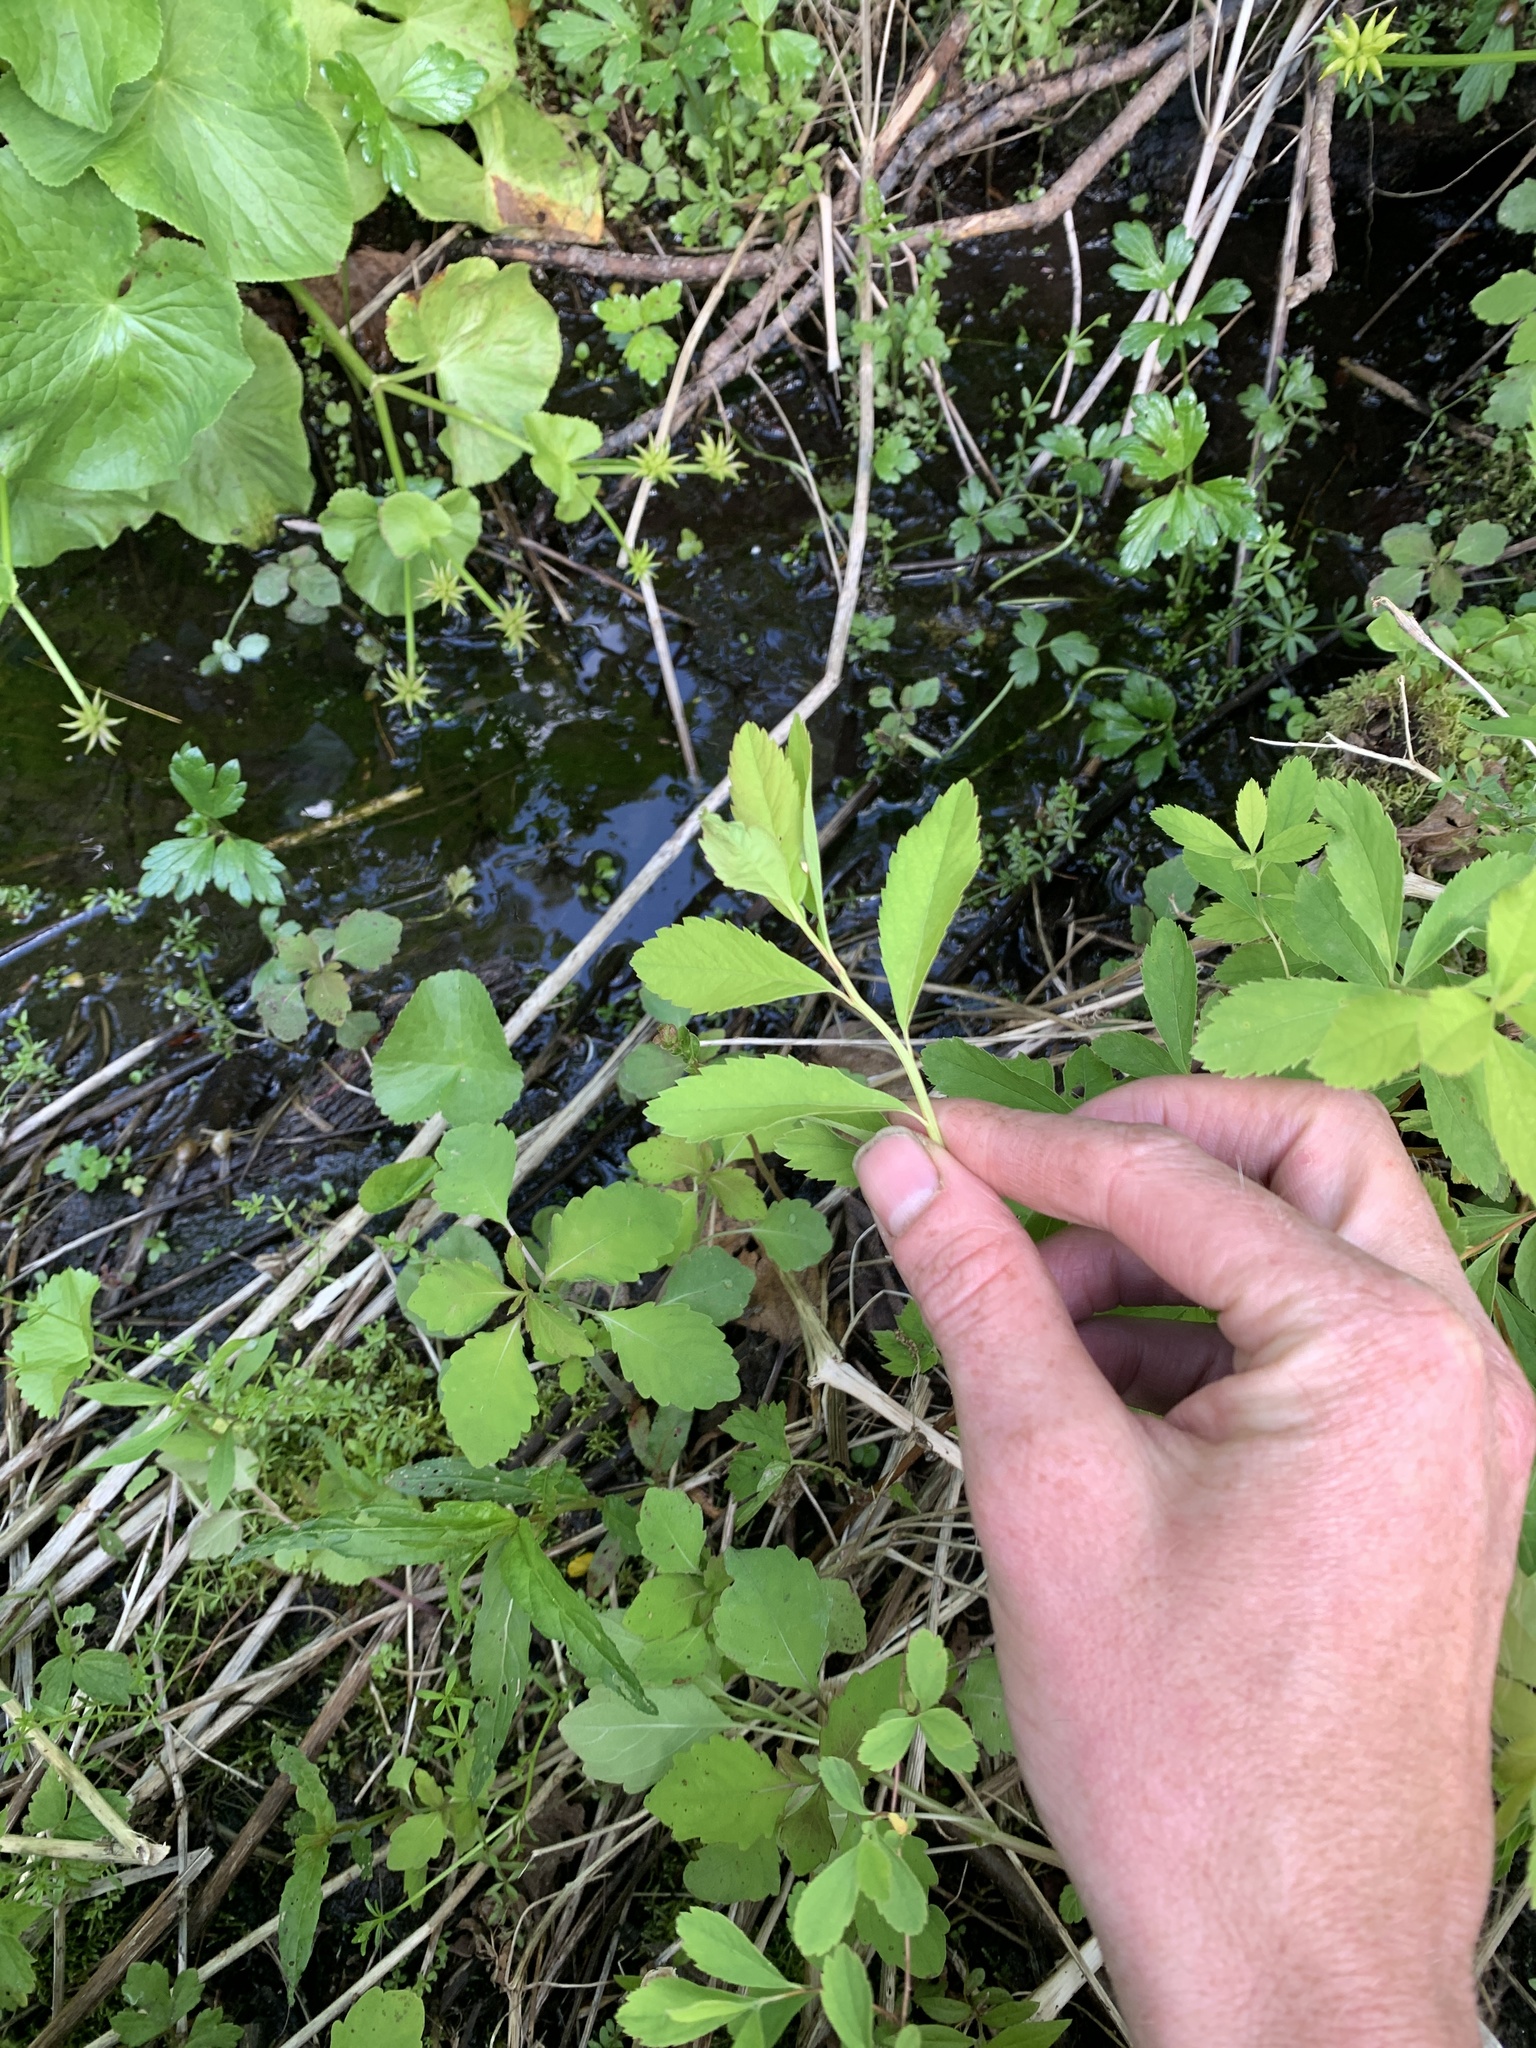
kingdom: Plantae
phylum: Tracheophyta
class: Magnoliopsida
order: Rosales
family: Rosaceae
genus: Spiraea
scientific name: Spiraea alba
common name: Pale bridewort
